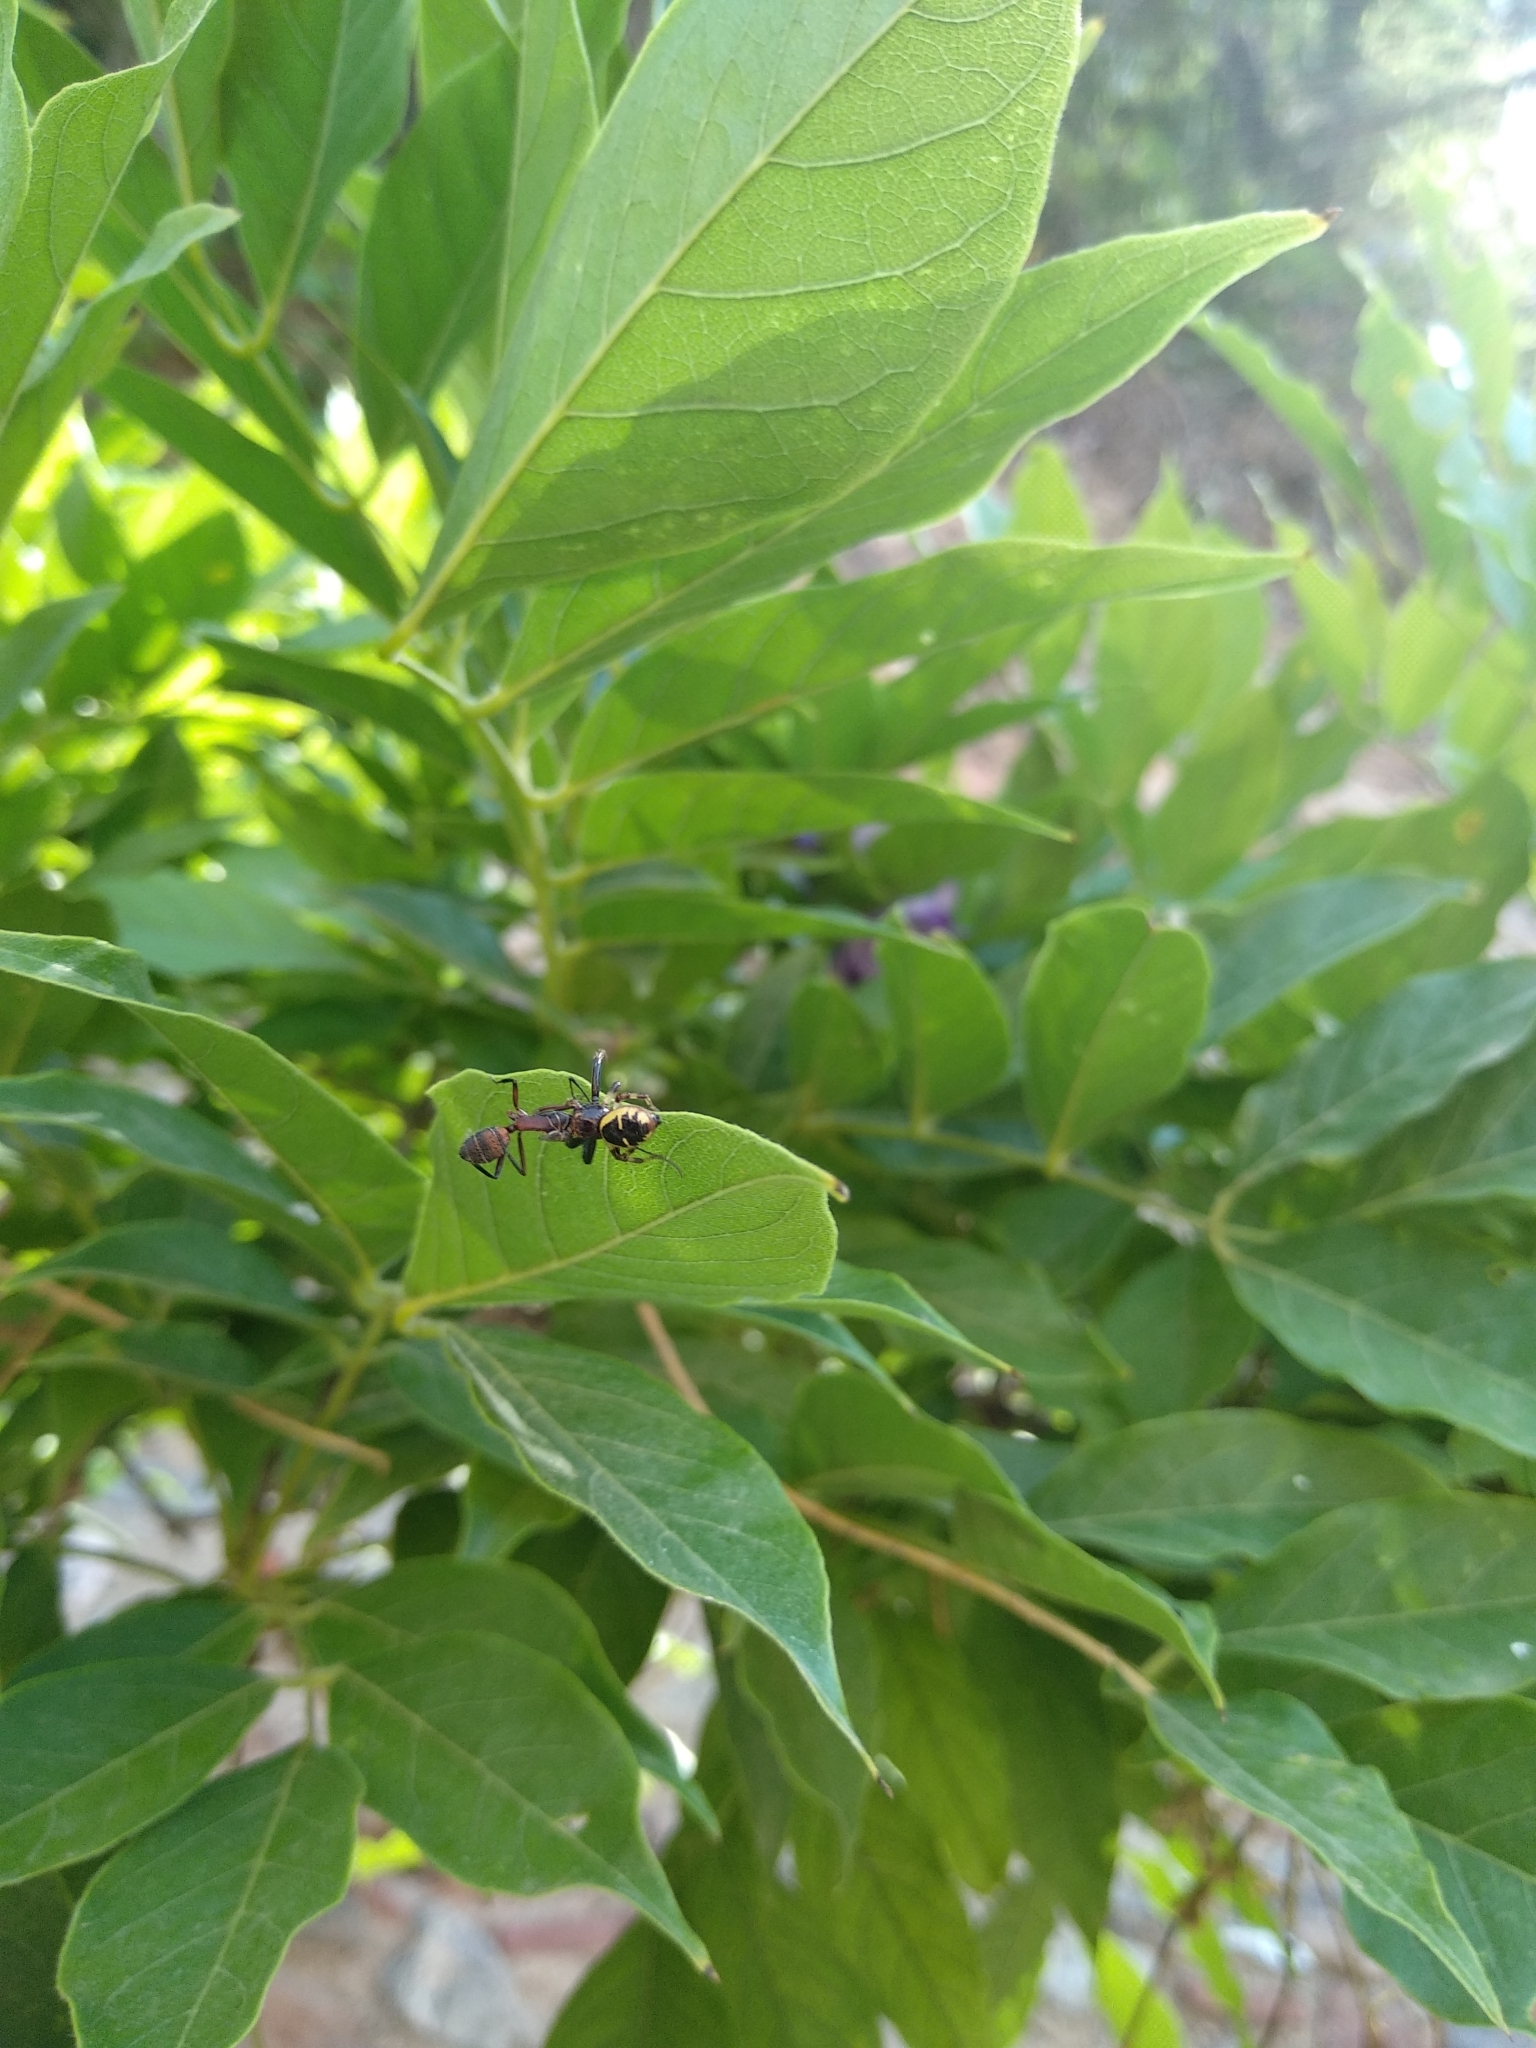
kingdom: Animalia
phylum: Arthropoda
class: Arachnida
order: Araneae
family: Thomisidae
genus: Synema
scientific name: Synema globosum
